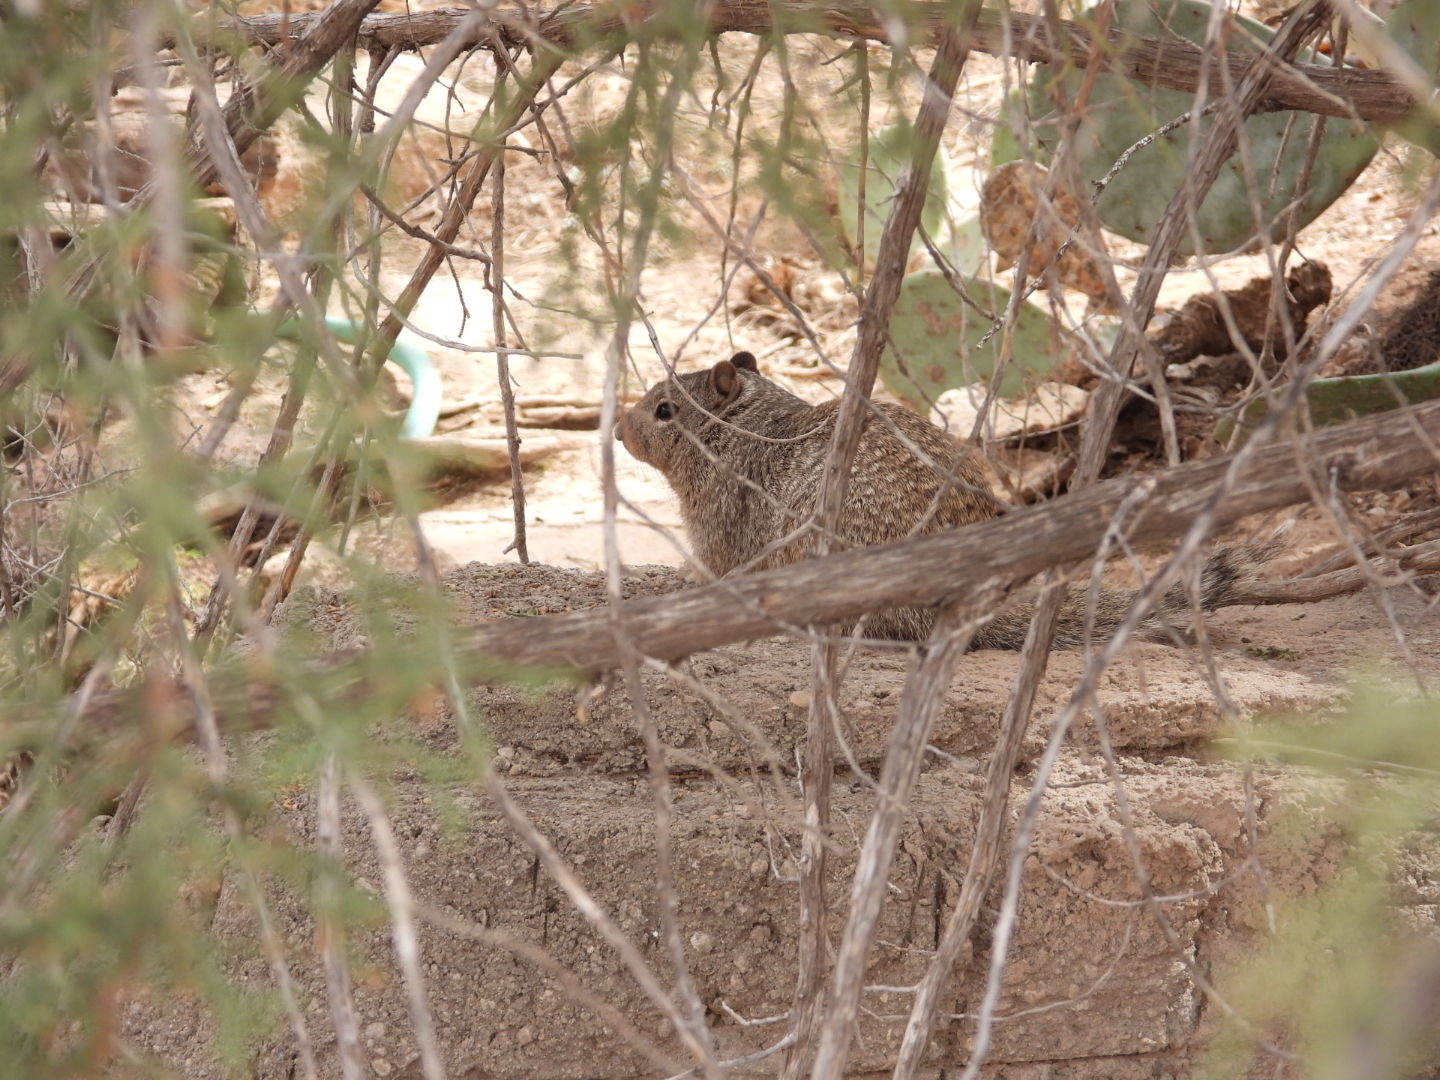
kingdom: Animalia
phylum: Chordata
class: Mammalia
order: Rodentia
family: Sciuridae
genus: Otospermophilus
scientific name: Otospermophilus variegatus
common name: Rock squirrel
